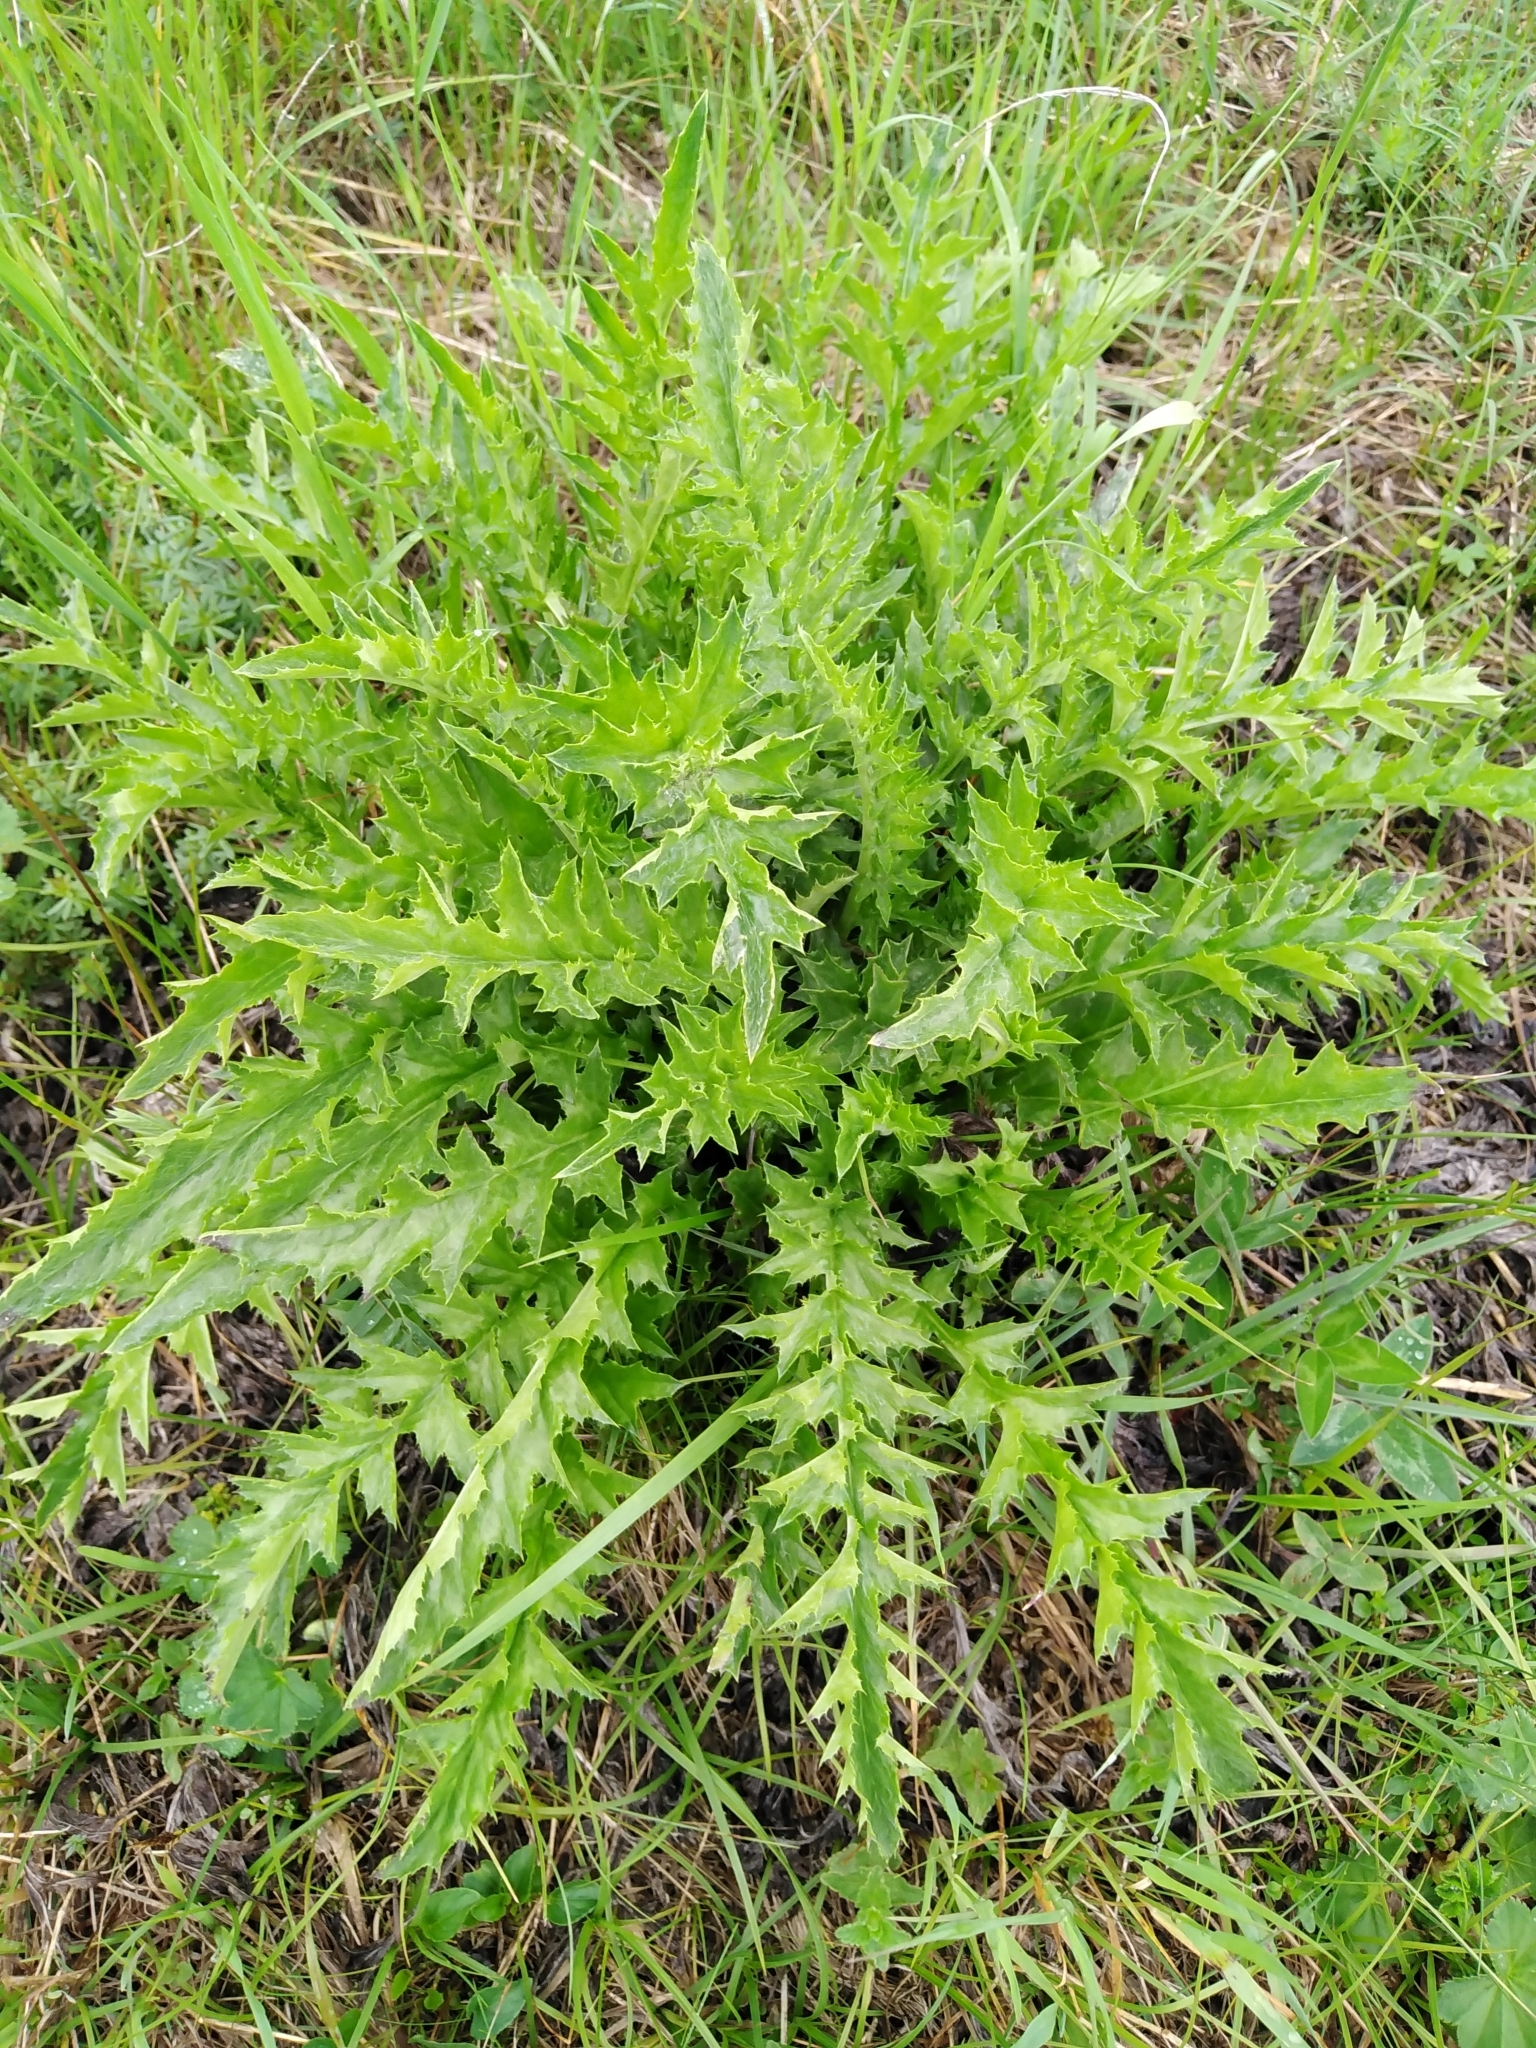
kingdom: Plantae
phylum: Tracheophyta
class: Magnoliopsida
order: Asterales
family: Asteraceae
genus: Carlina
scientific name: Carlina acaulis
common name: Stemless carline thistle
